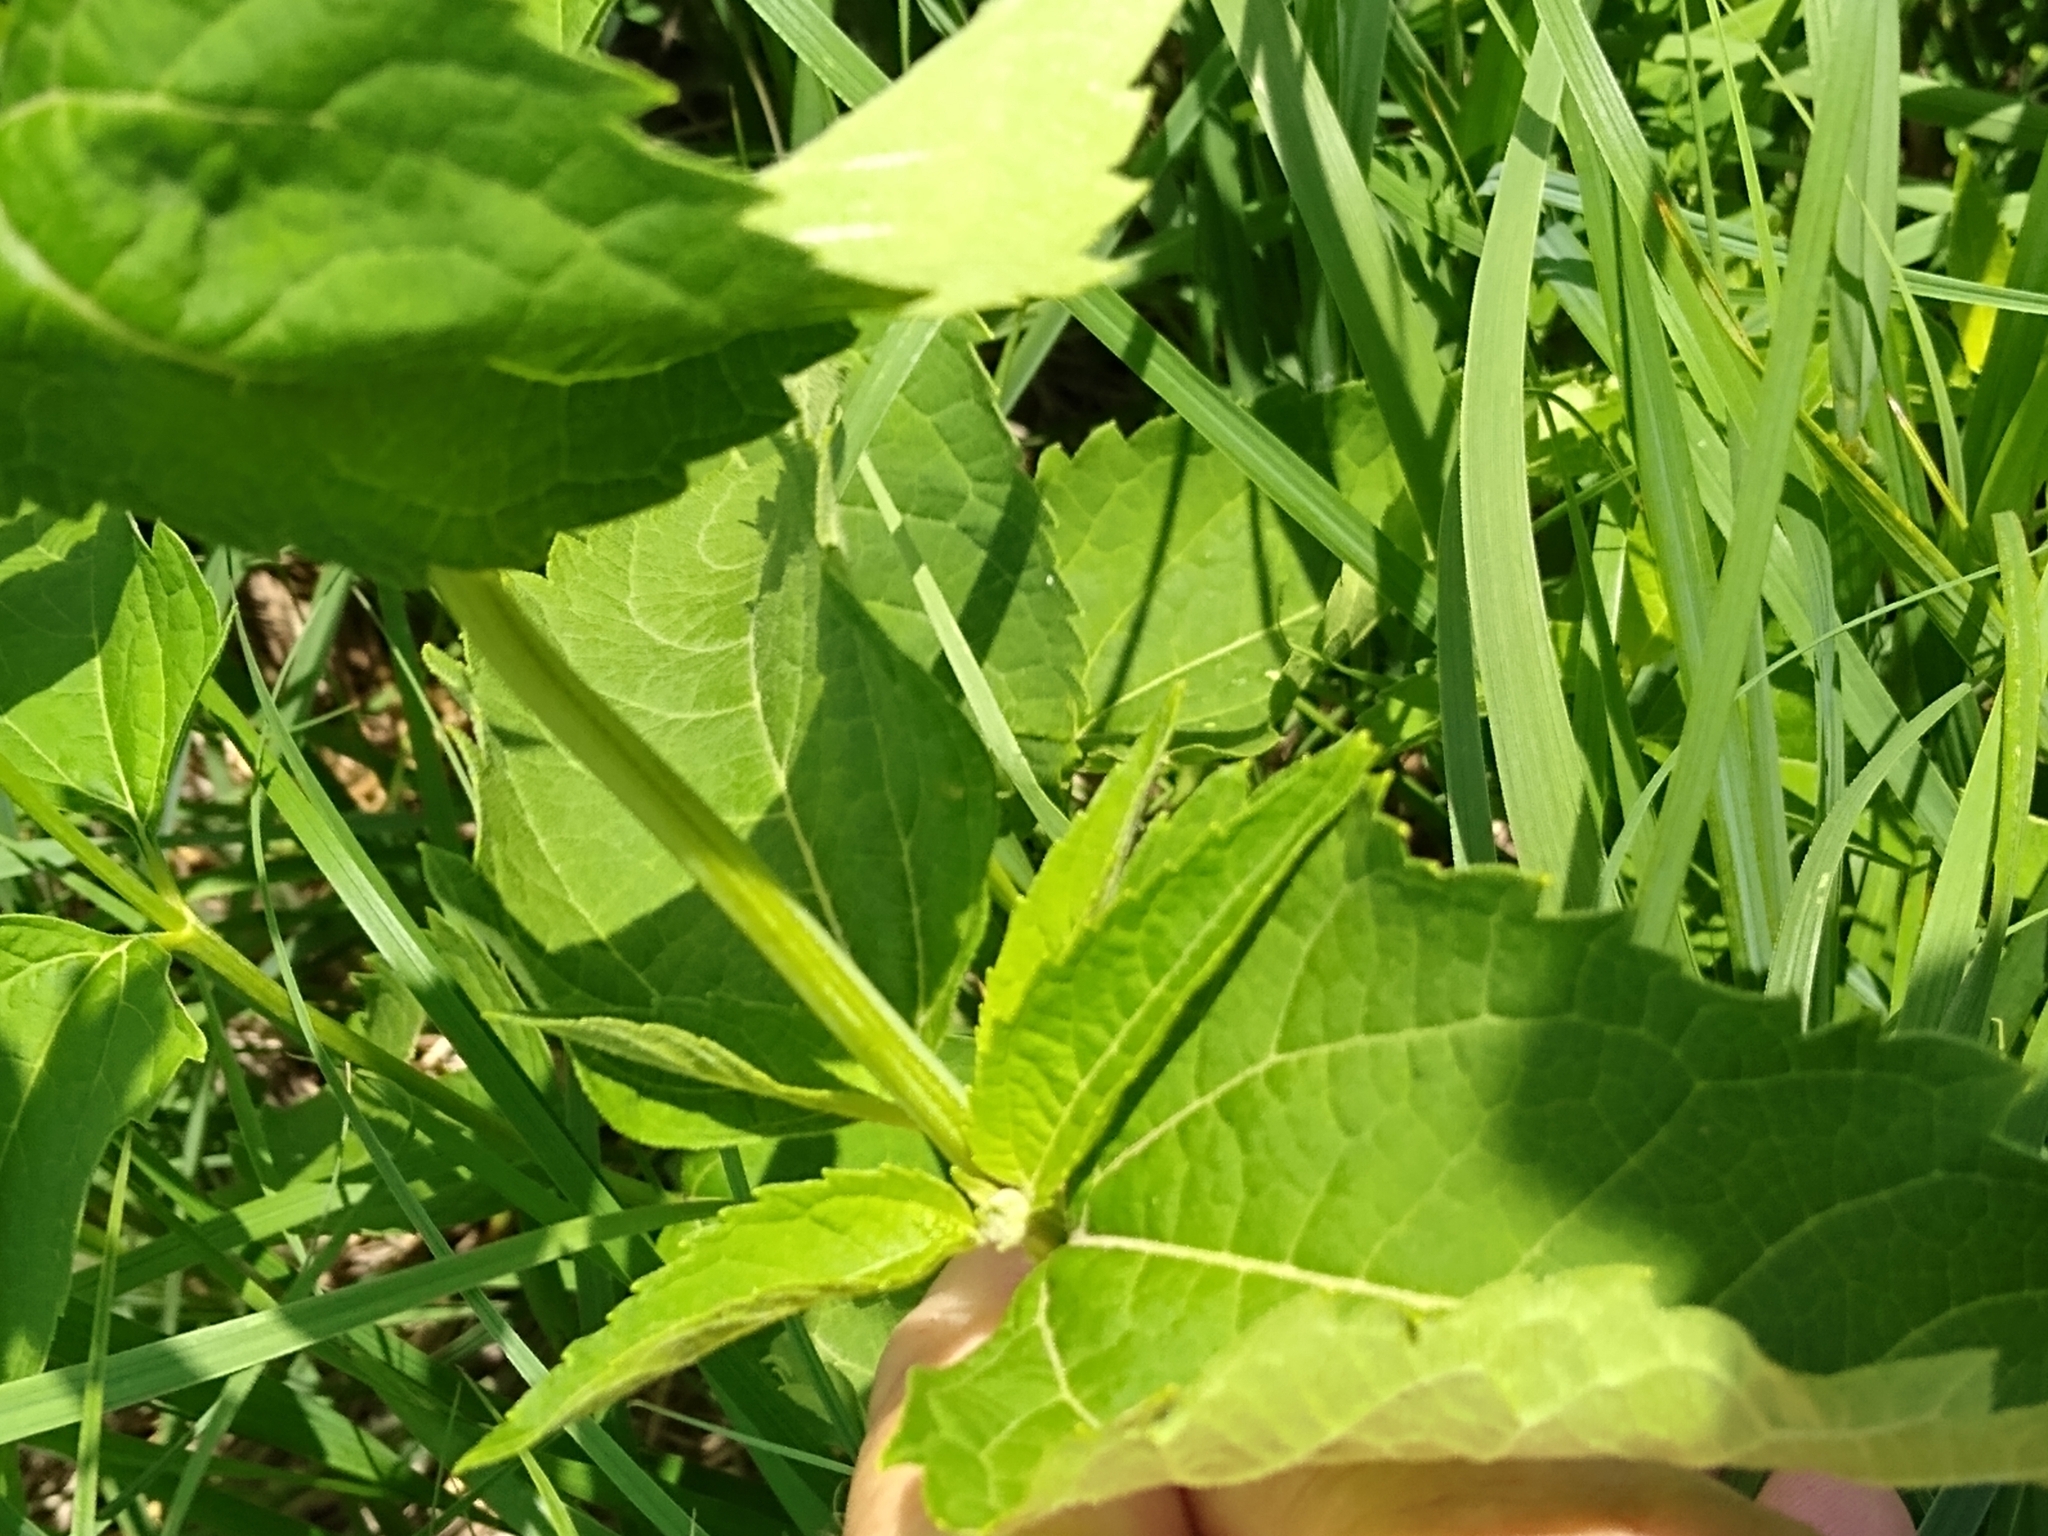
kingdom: Plantae
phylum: Tracheophyta
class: Magnoliopsida
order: Asterales
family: Asteraceae
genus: Heliopsis
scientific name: Heliopsis helianthoides
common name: False sunflower
